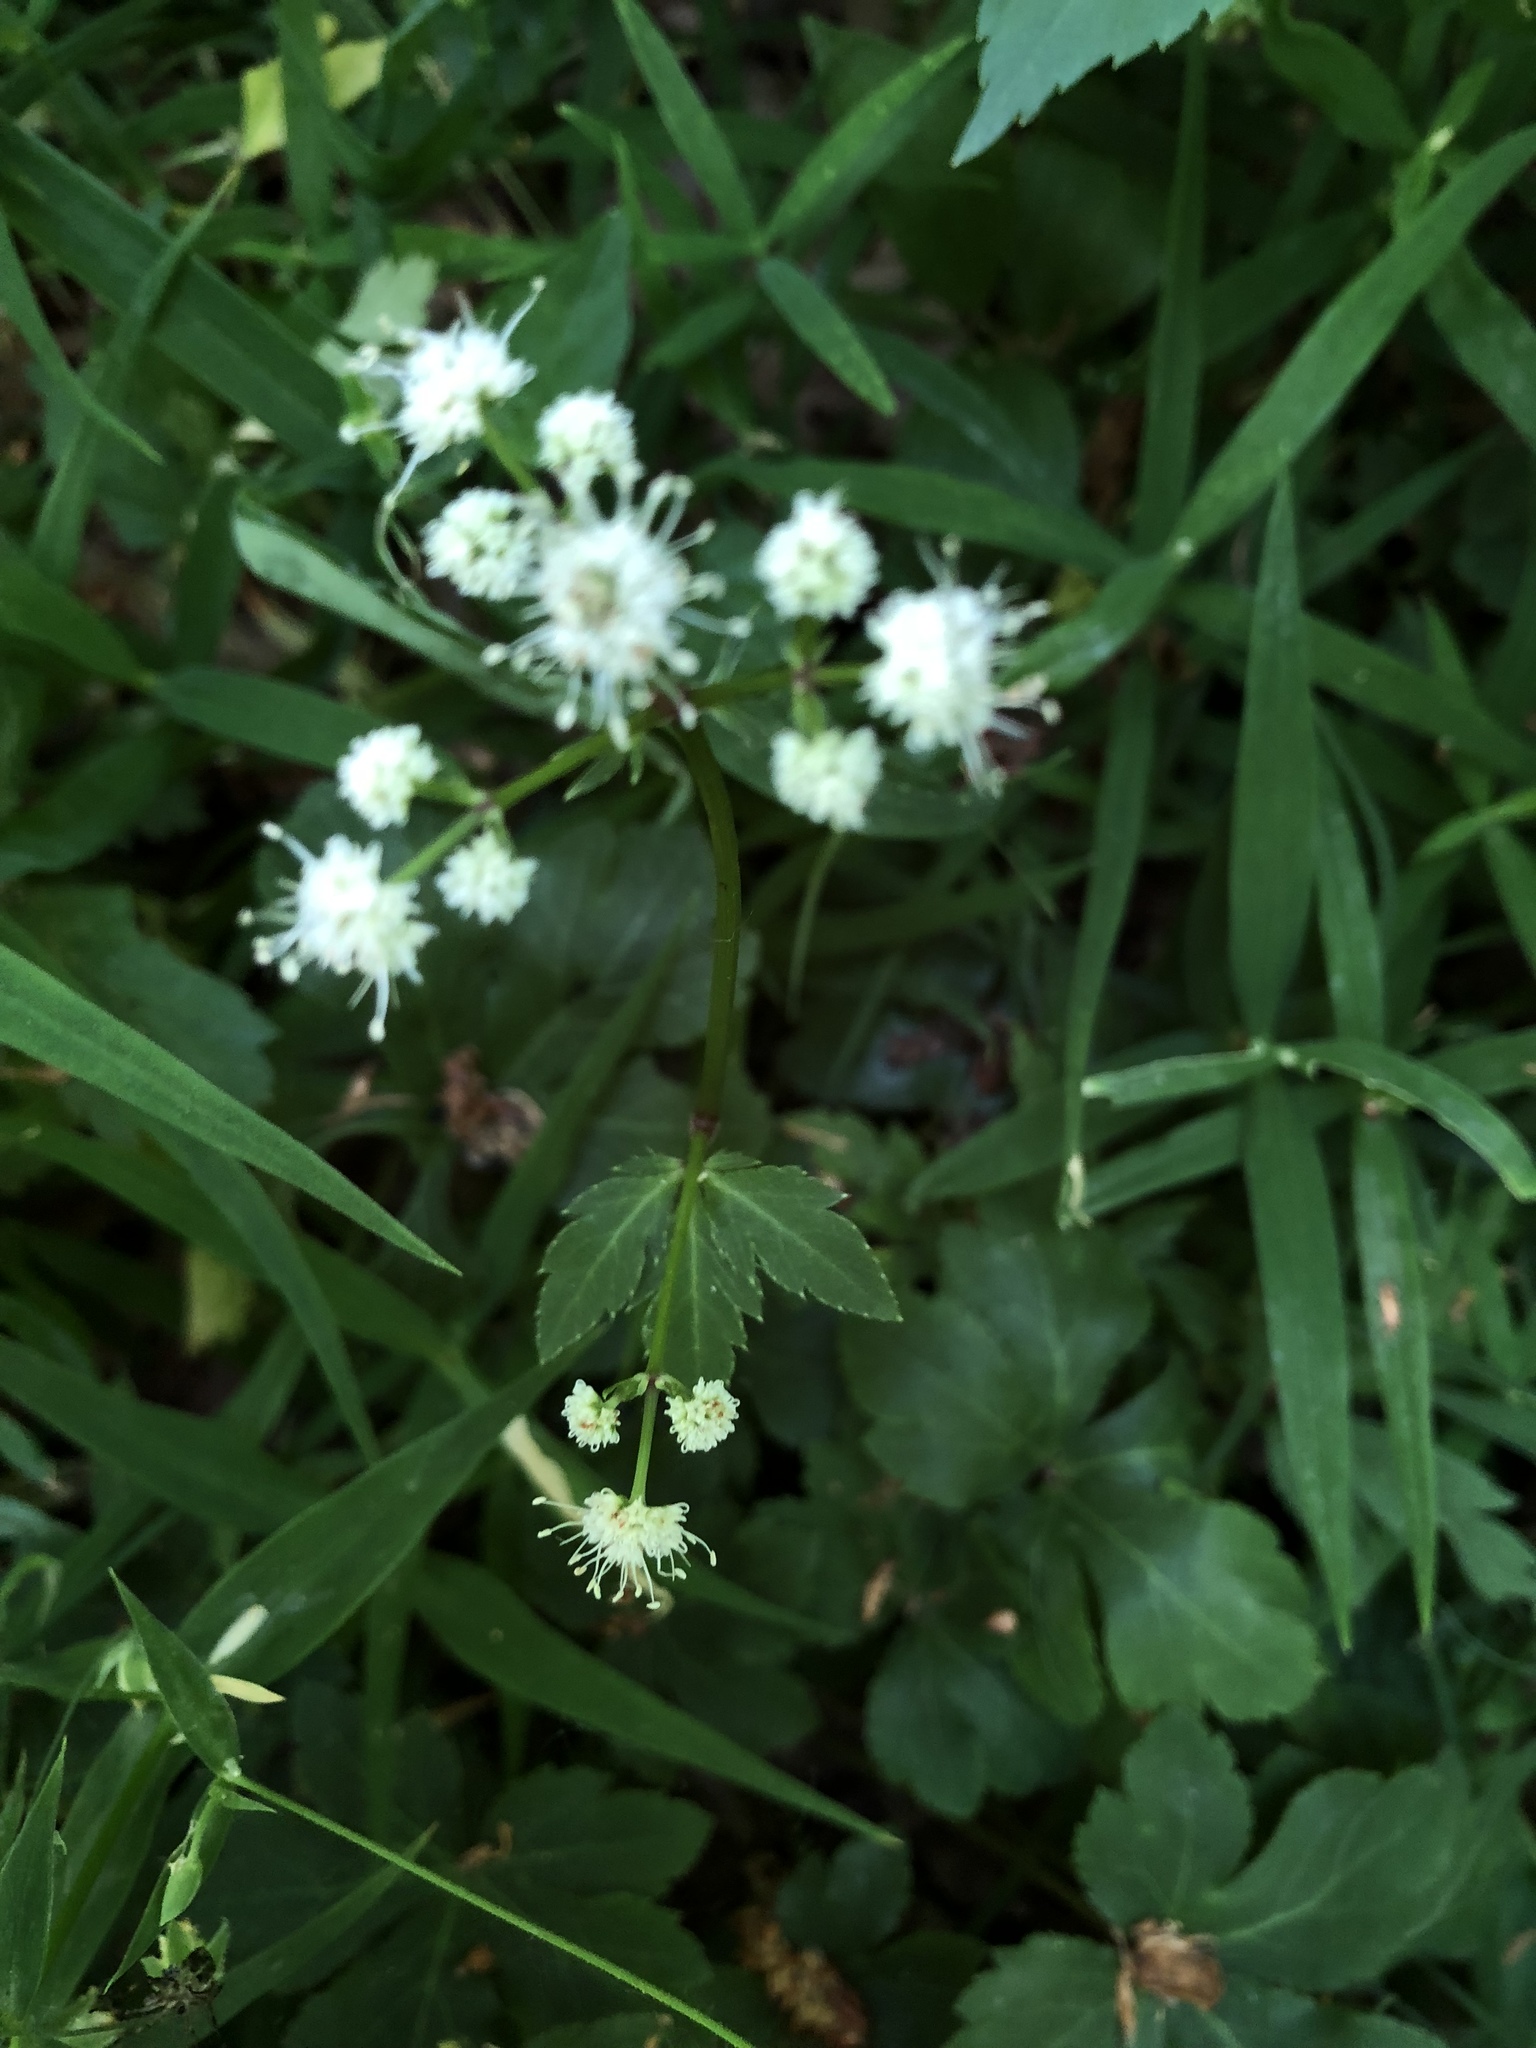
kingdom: Plantae
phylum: Tracheophyta
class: Magnoliopsida
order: Apiales
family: Apiaceae
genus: Sanicula
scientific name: Sanicula europaea
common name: Sanicle
